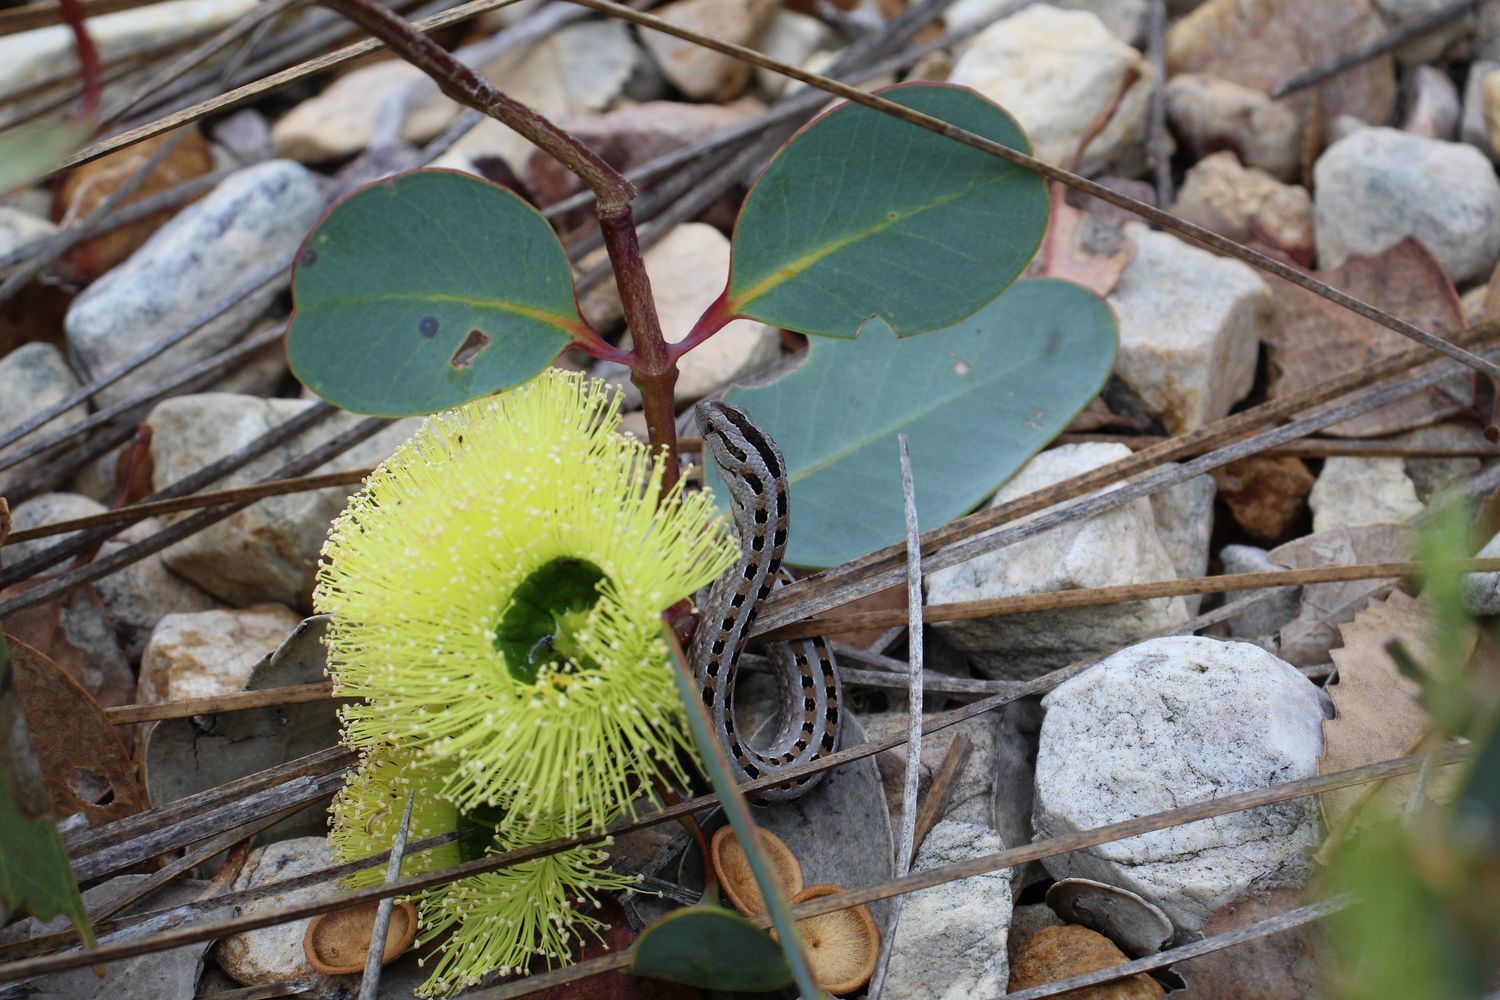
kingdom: Animalia
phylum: Chordata
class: Squamata
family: Pygopodidae
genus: Pygopus
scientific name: Pygopus lepidopodus
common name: Southern scaly-foot
